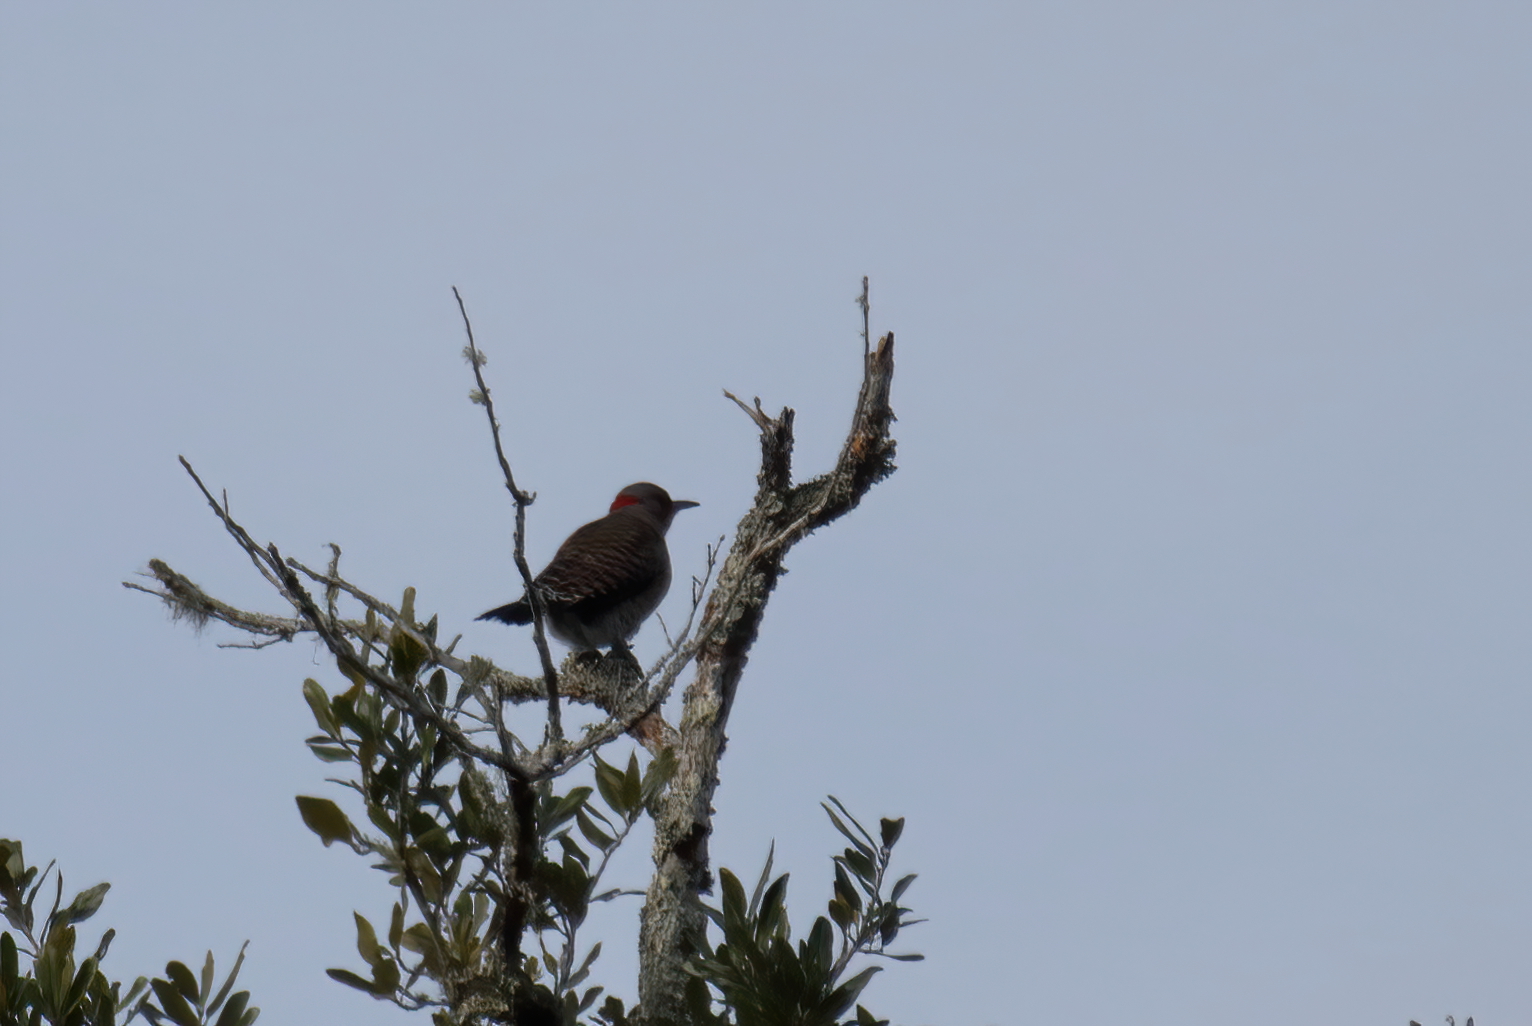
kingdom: Animalia
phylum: Chordata
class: Aves
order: Piciformes
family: Picidae
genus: Colaptes
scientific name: Colaptes auratus
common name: Northern flicker
